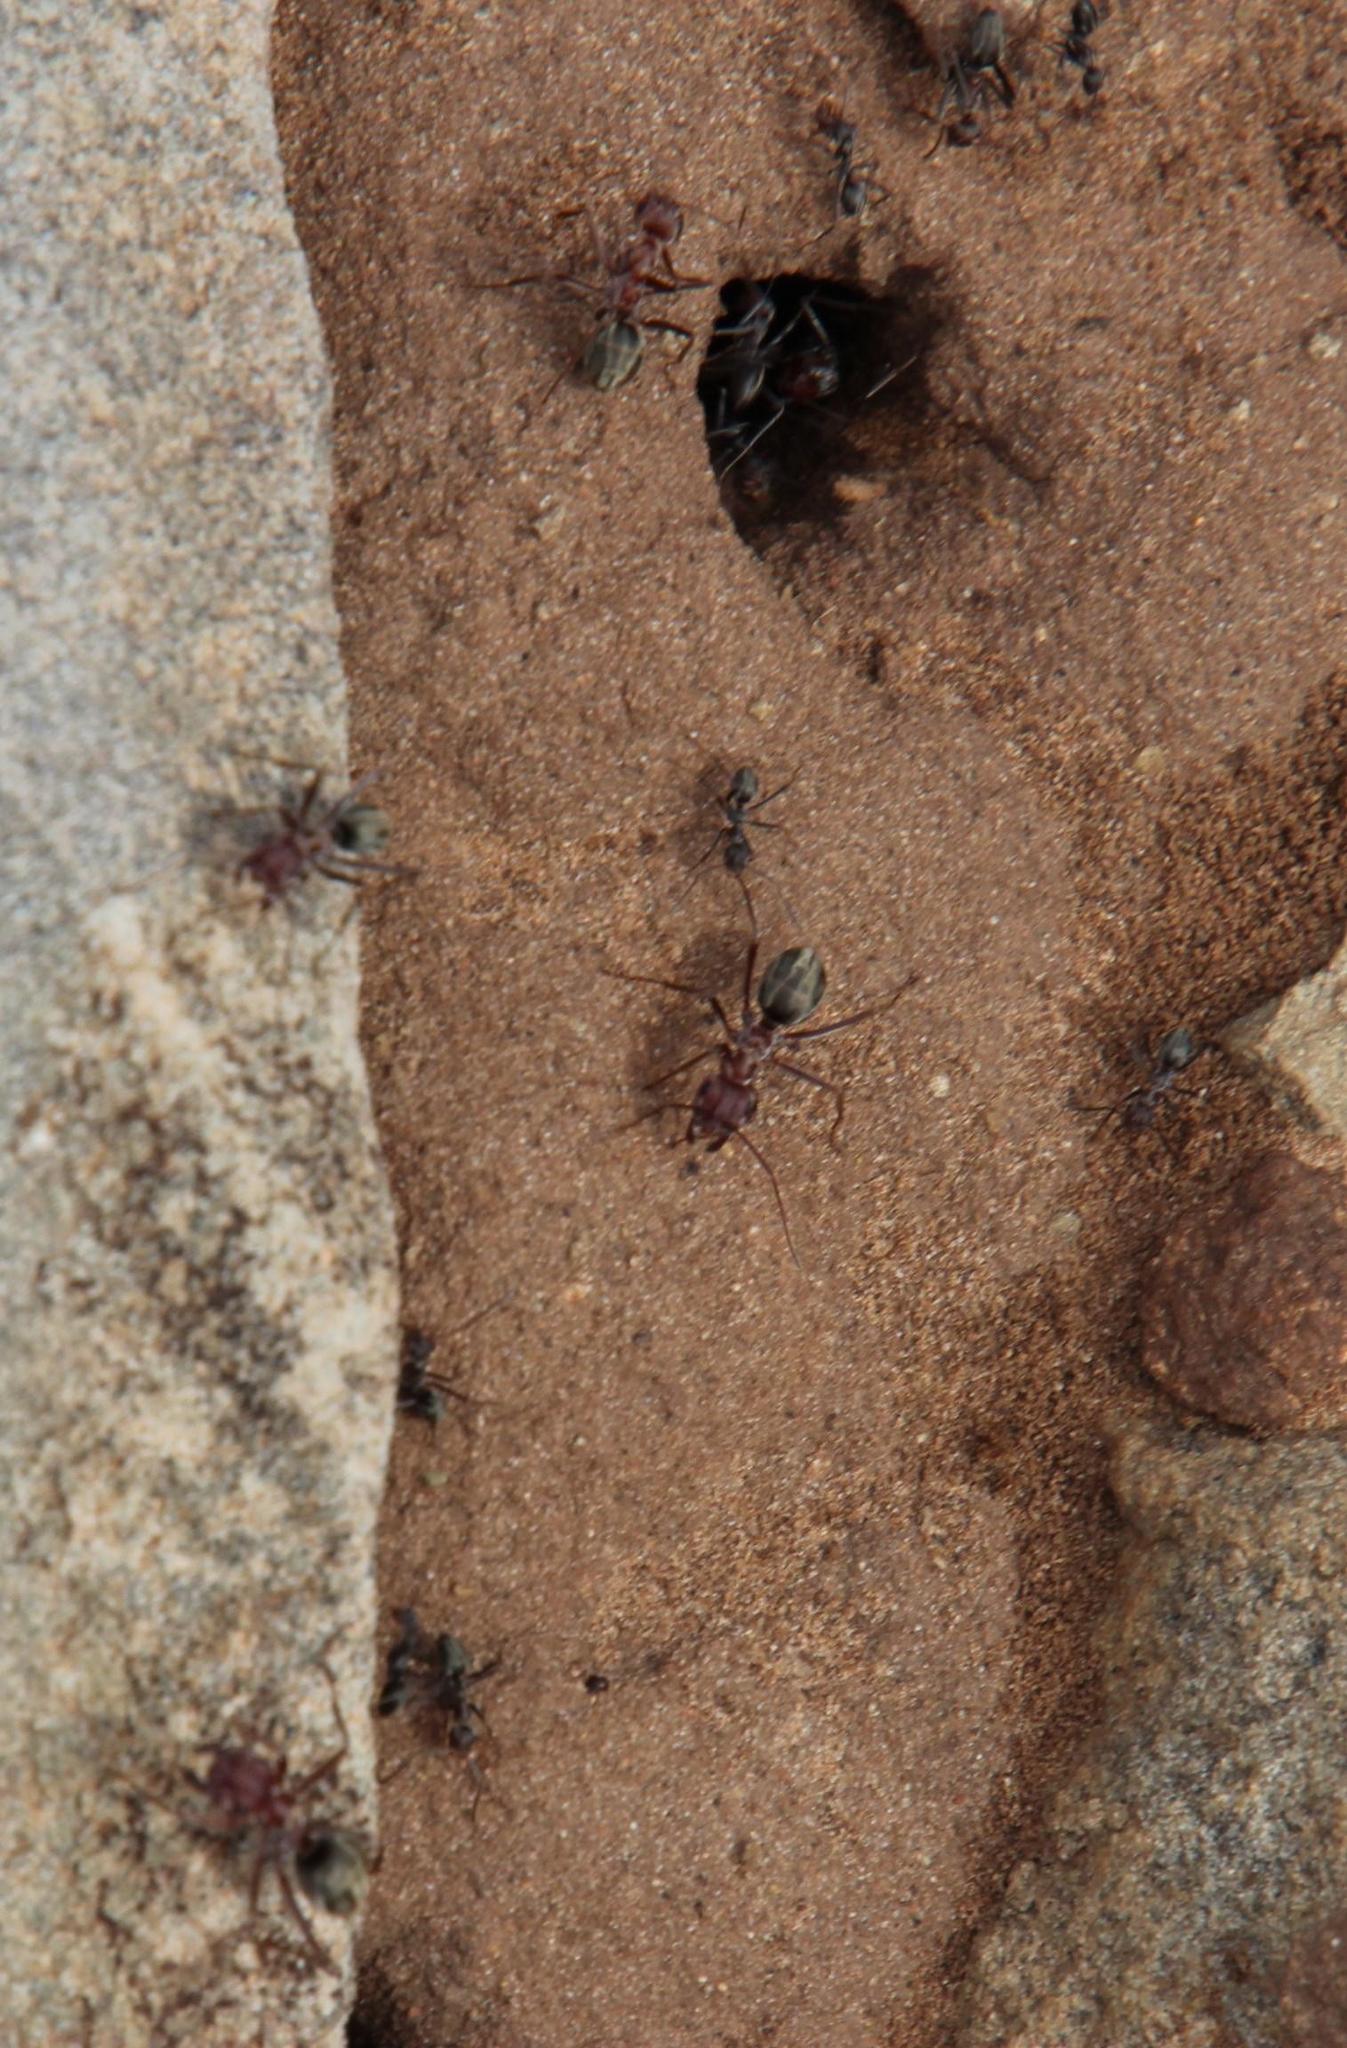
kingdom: Animalia
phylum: Arthropoda
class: Insecta
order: Hymenoptera
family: Formicidae
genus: Anoplolepis
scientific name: Anoplolepis custodiens
